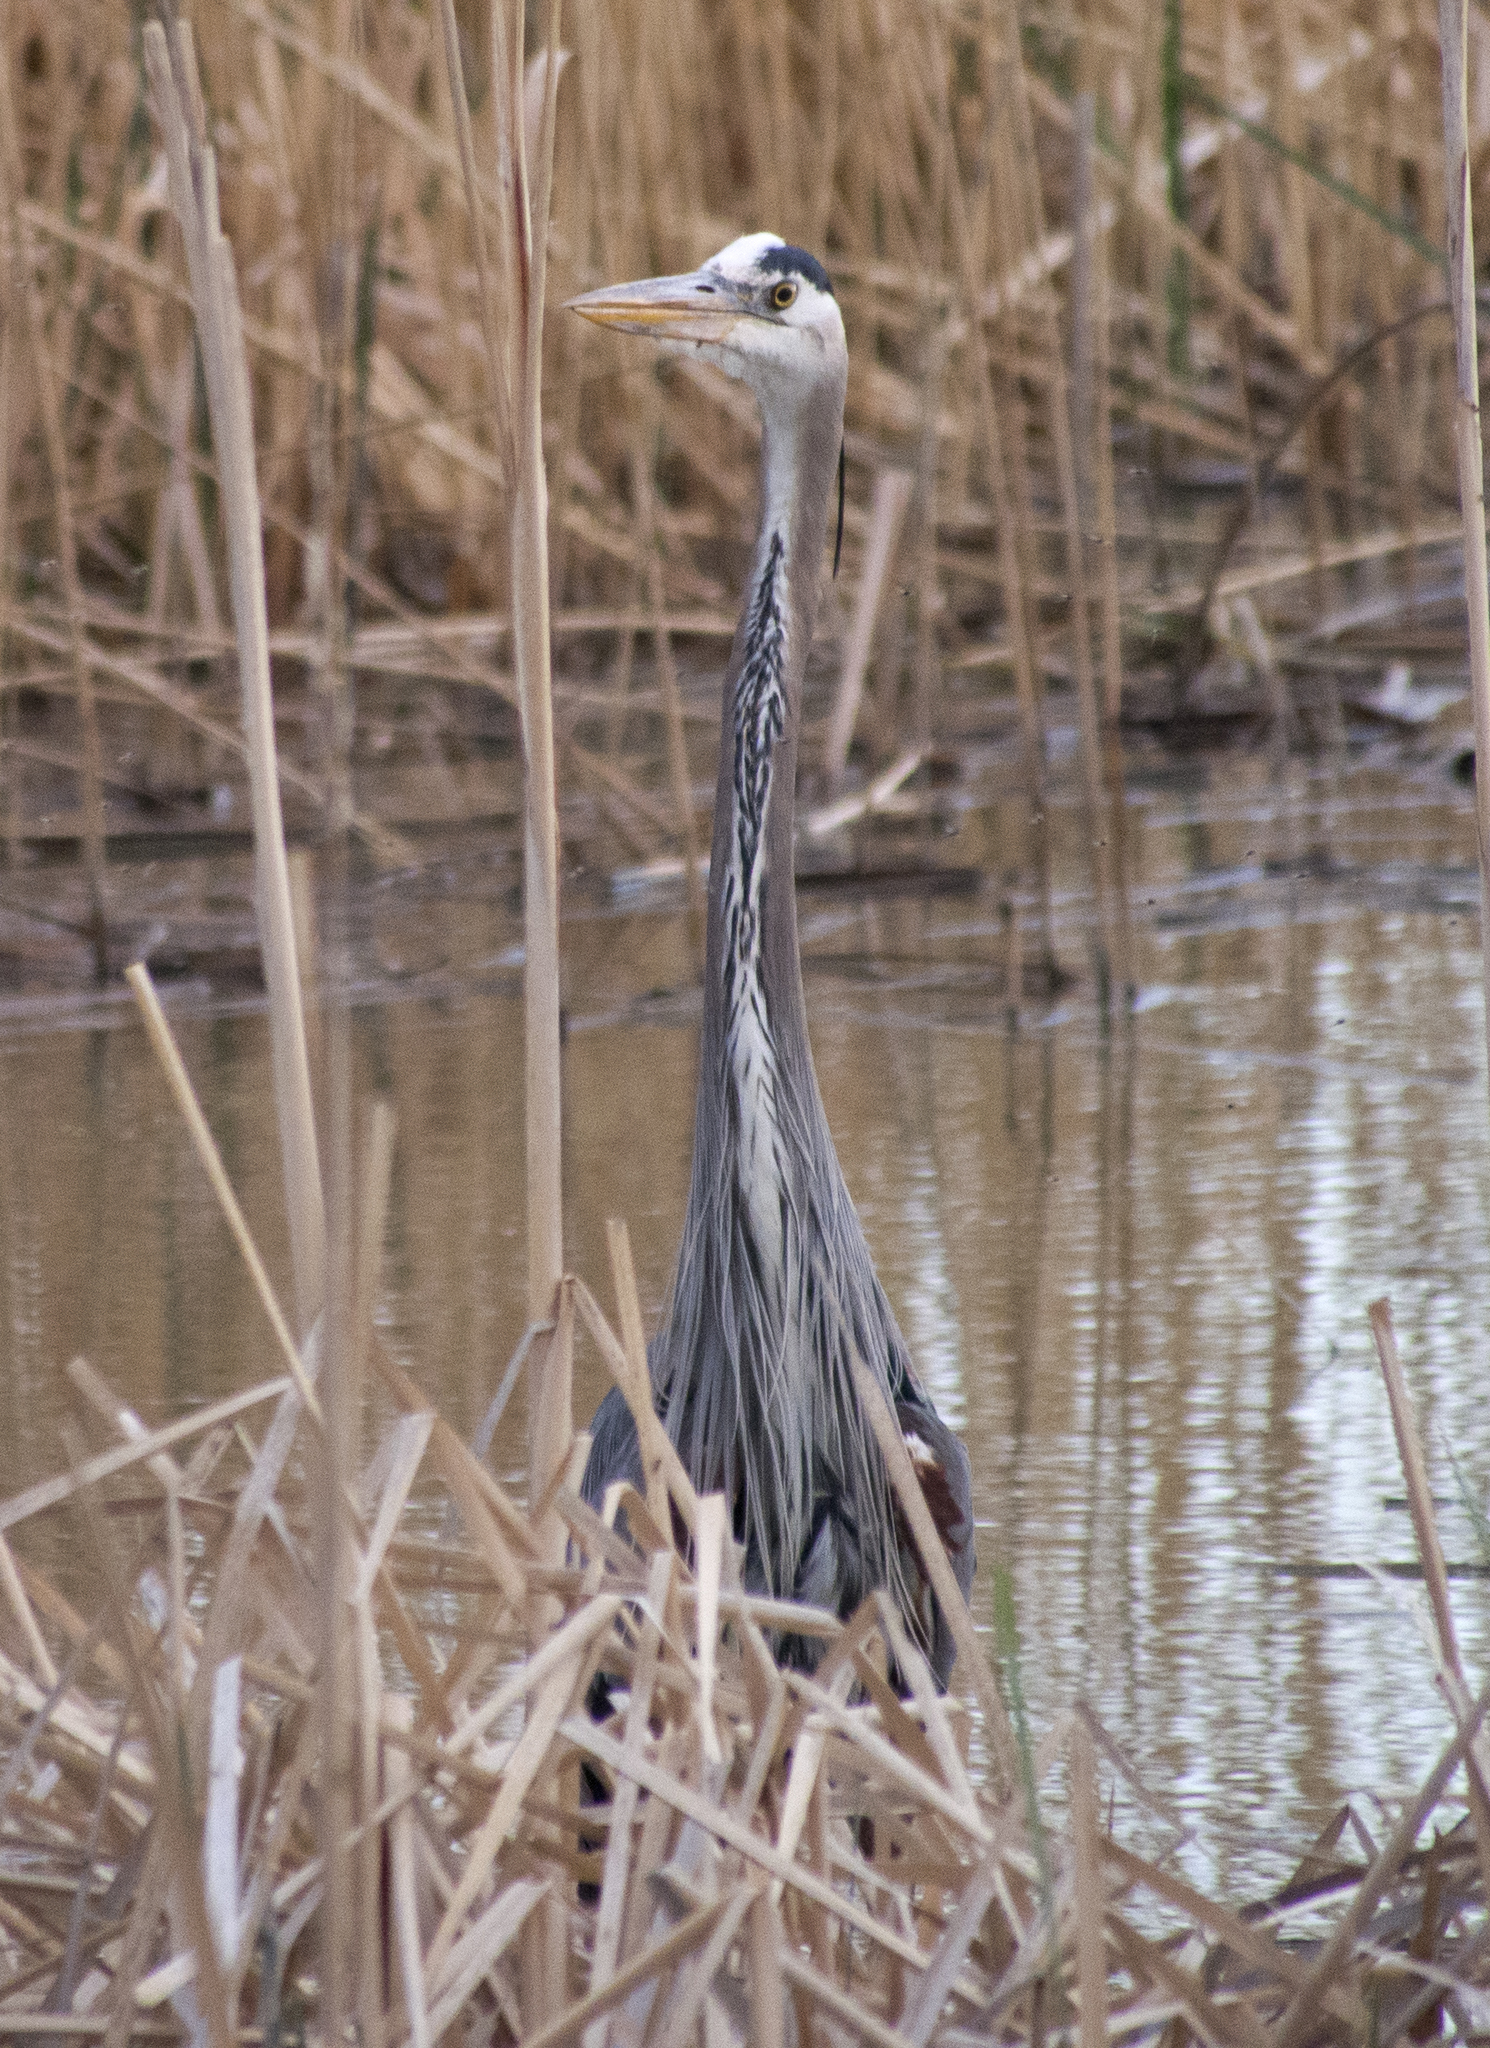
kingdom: Animalia
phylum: Chordata
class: Aves
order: Pelecaniformes
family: Ardeidae
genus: Ardea
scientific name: Ardea herodias
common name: Great blue heron
